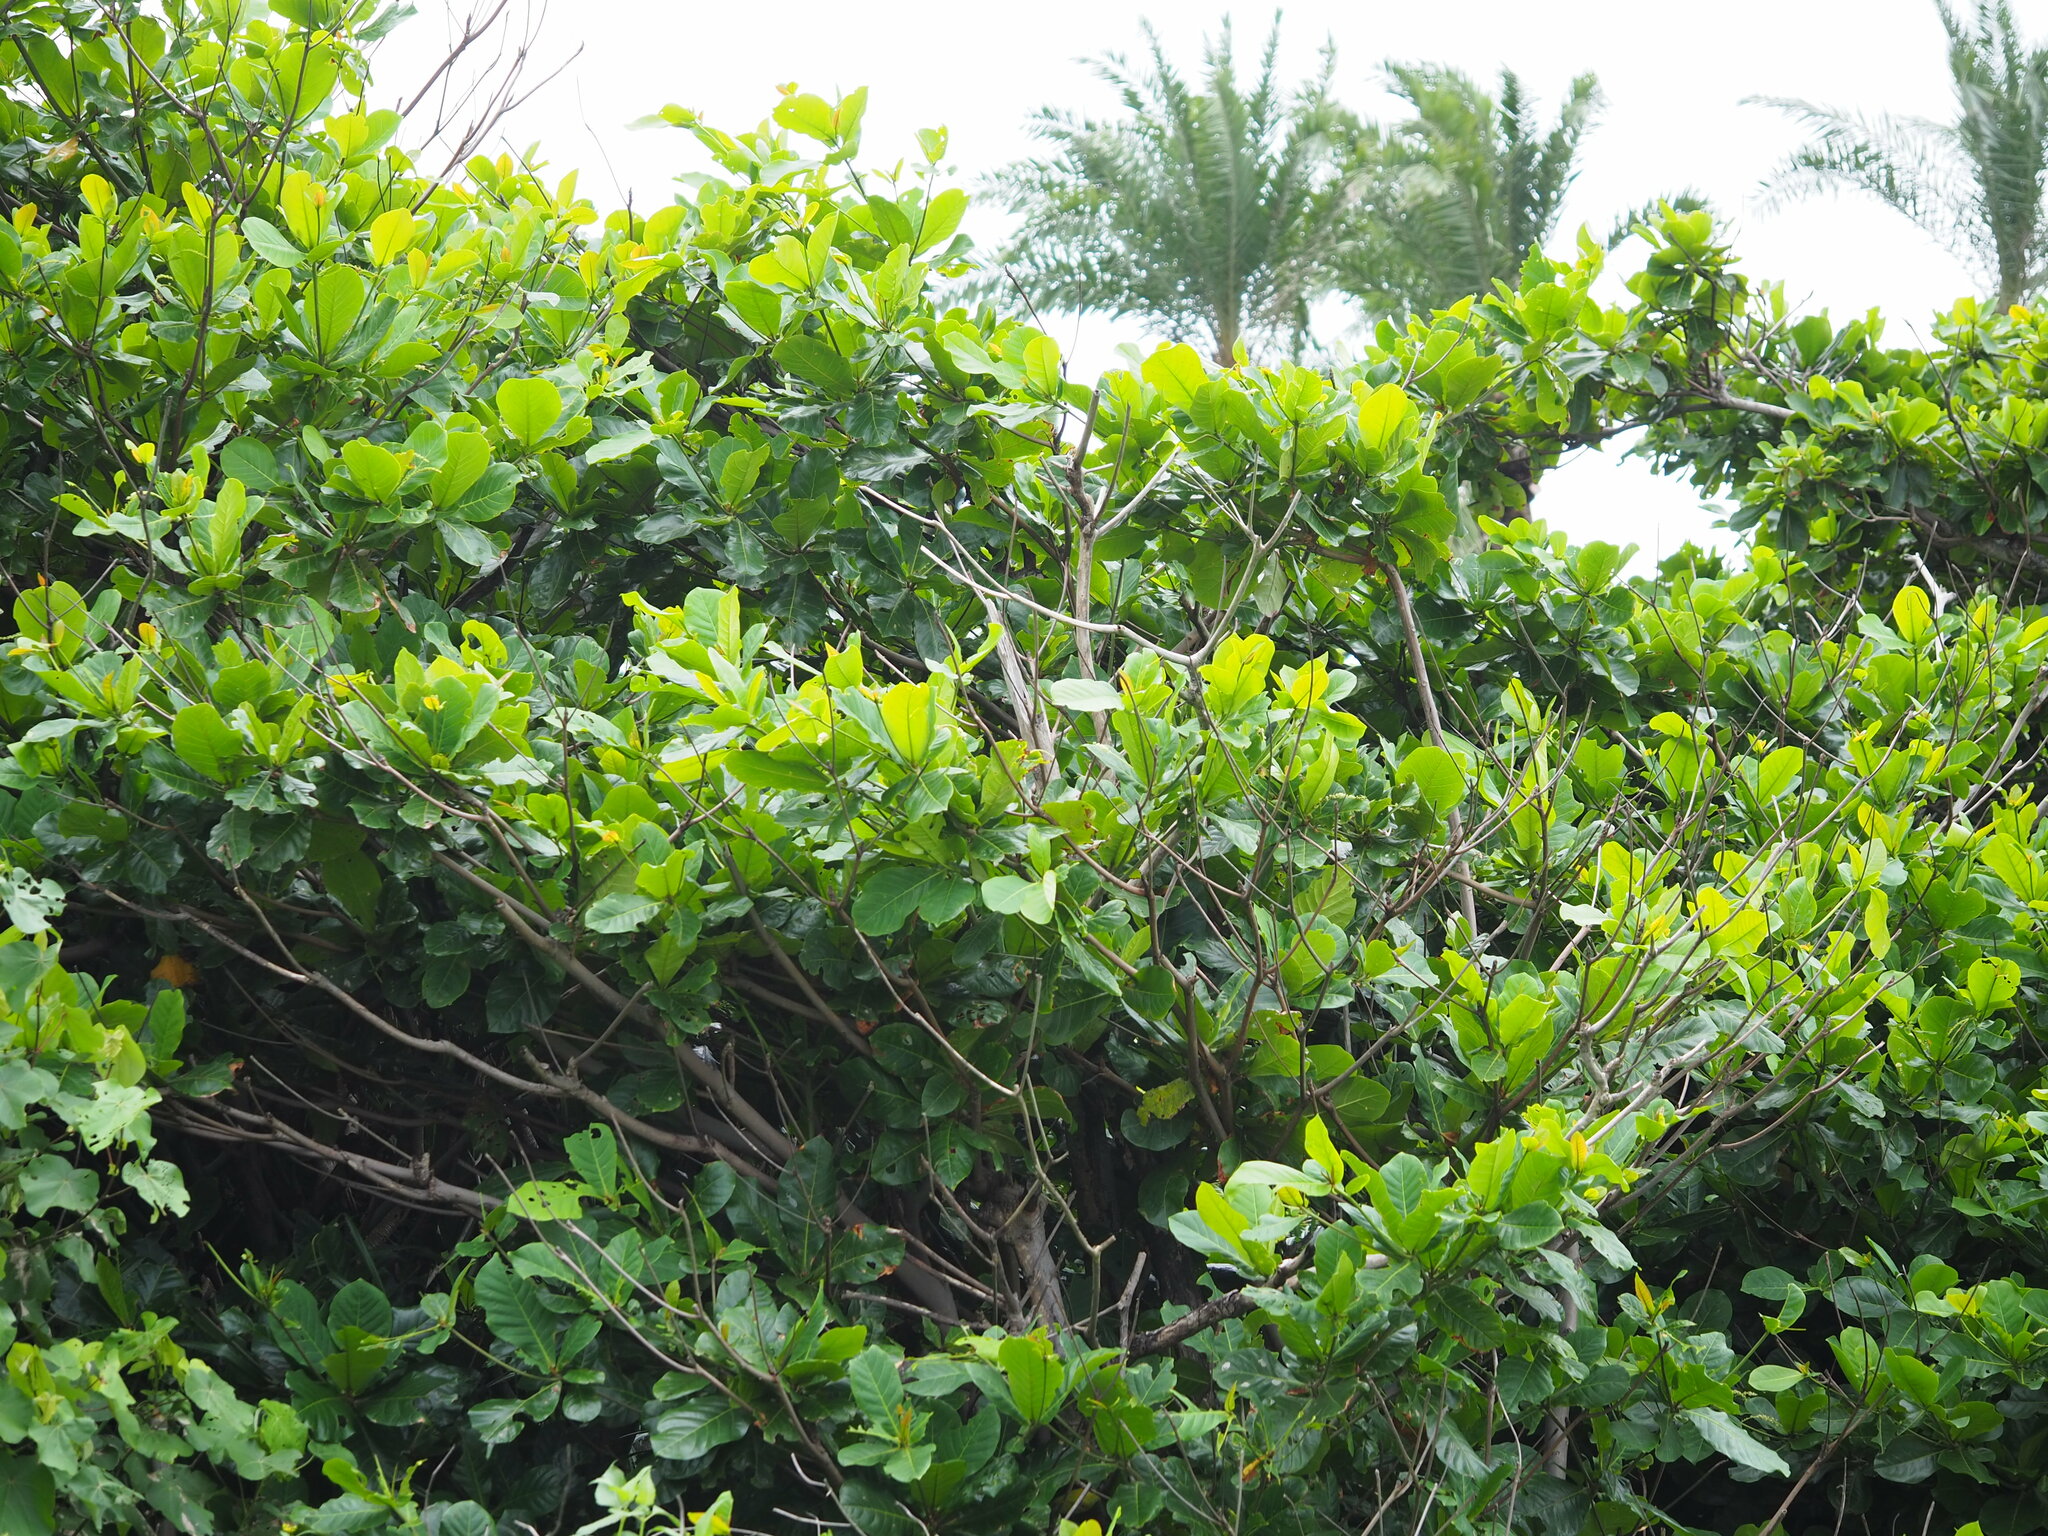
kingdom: Plantae
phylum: Tracheophyta
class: Magnoliopsida
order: Myrtales
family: Combretaceae
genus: Terminalia
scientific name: Terminalia catappa
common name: Tropical almond
